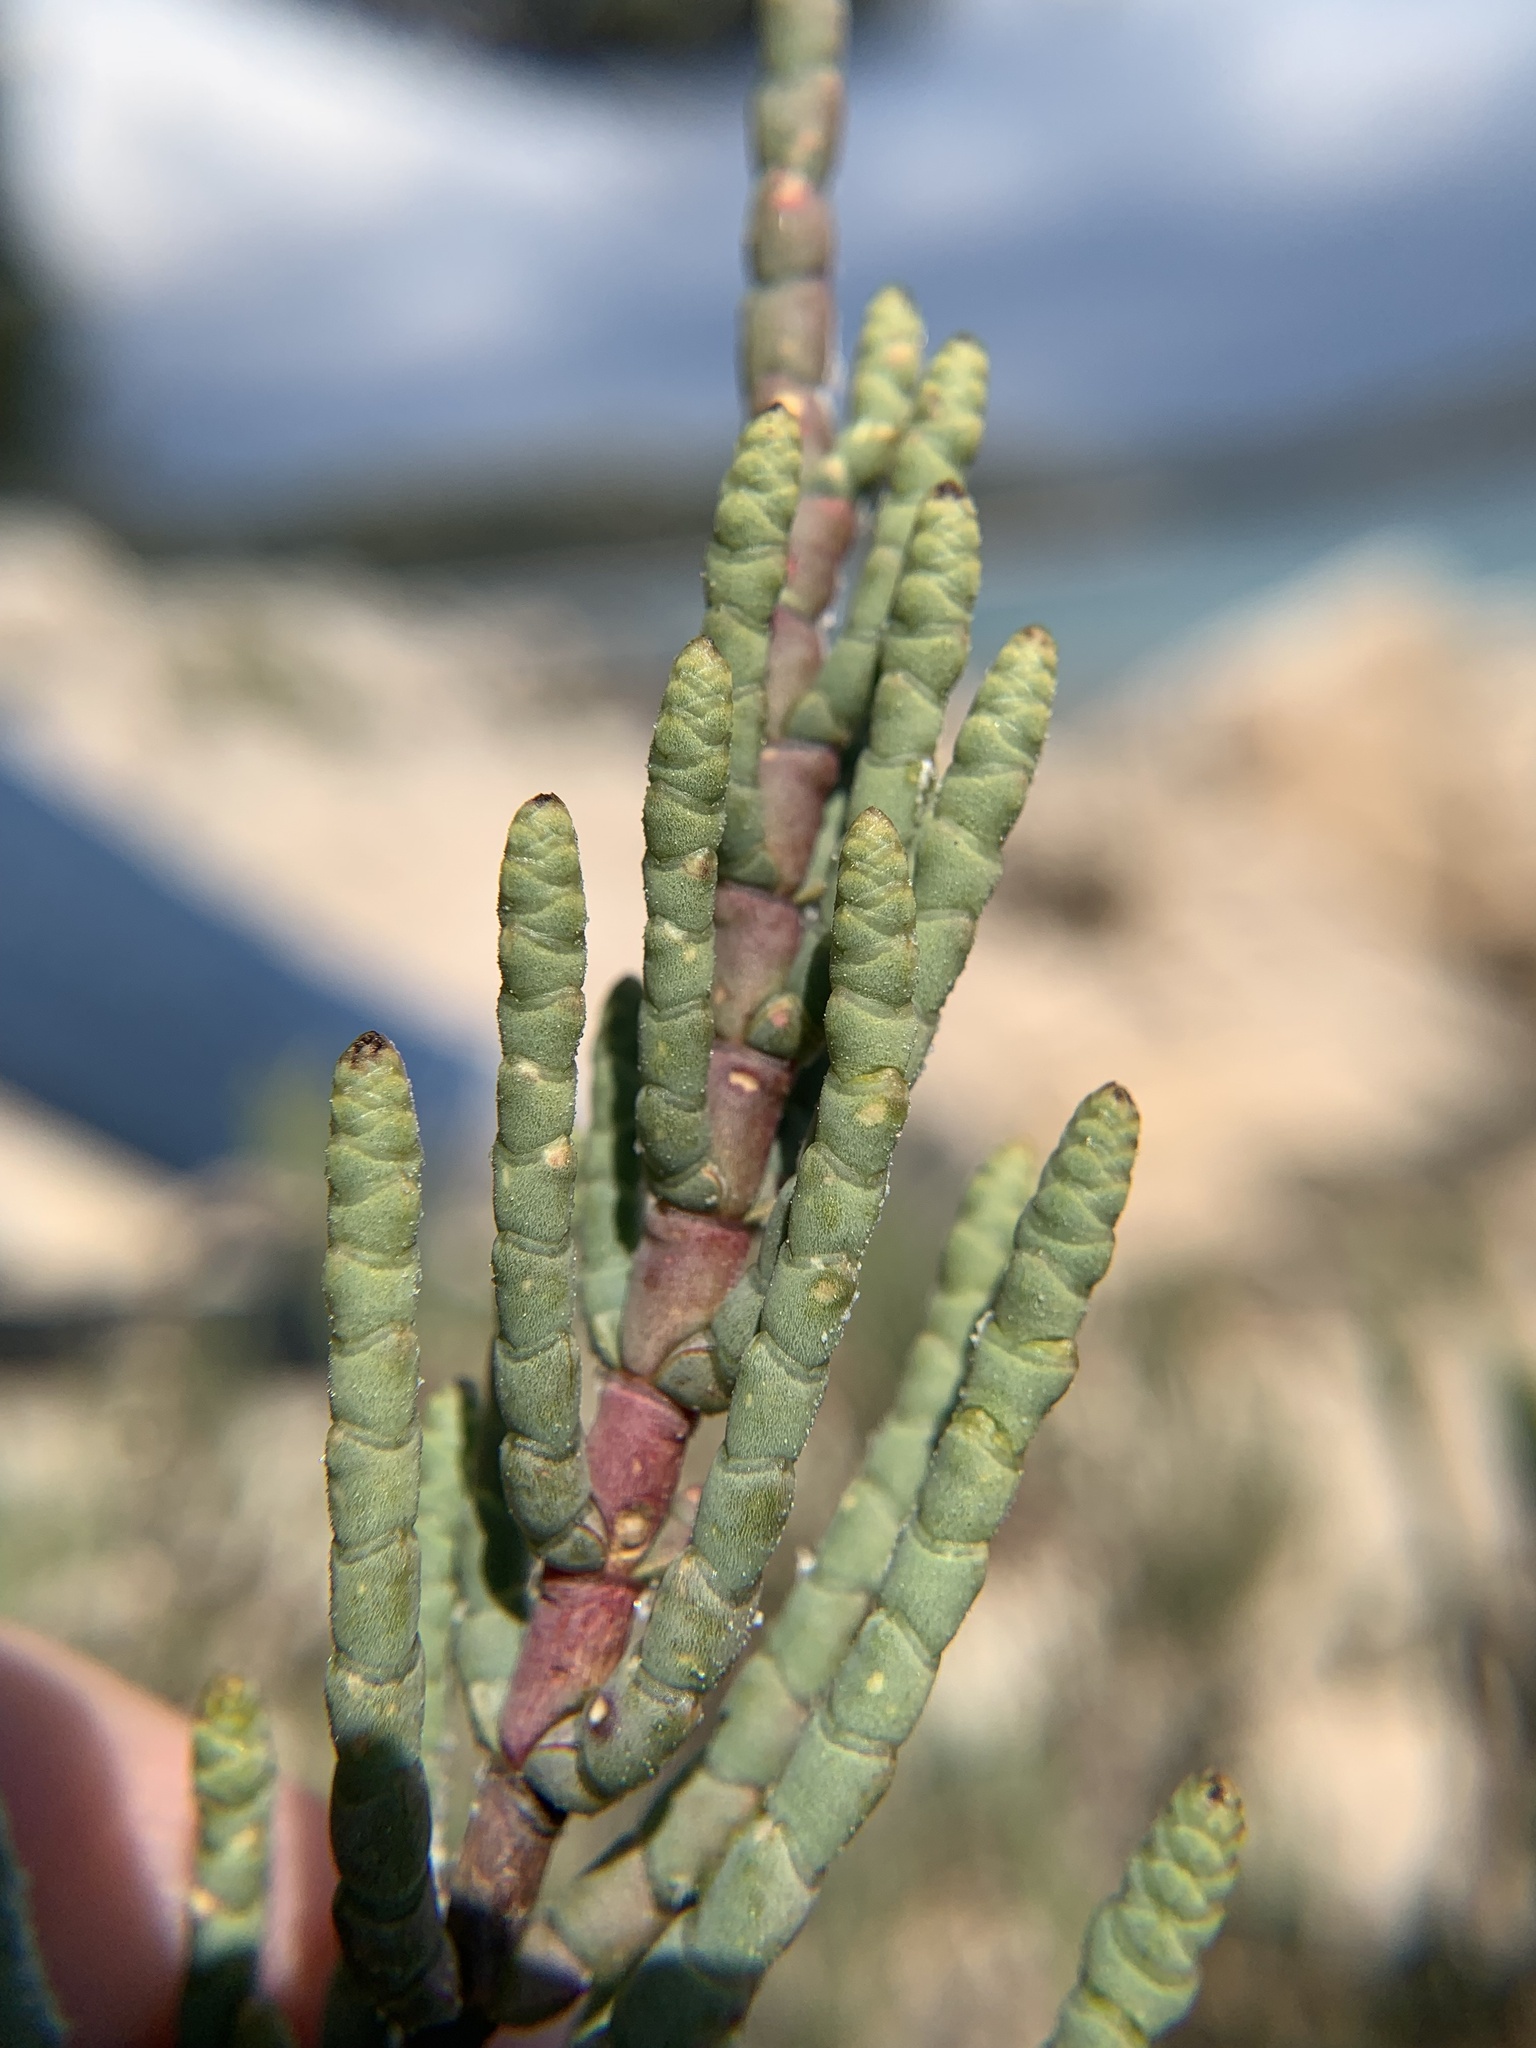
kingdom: Plantae
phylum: Tracheophyta
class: Magnoliopsida
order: Caryophyllales
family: Amaranthaceae
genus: Arthrocaulon
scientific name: Arthrocaulon macrostachyum
